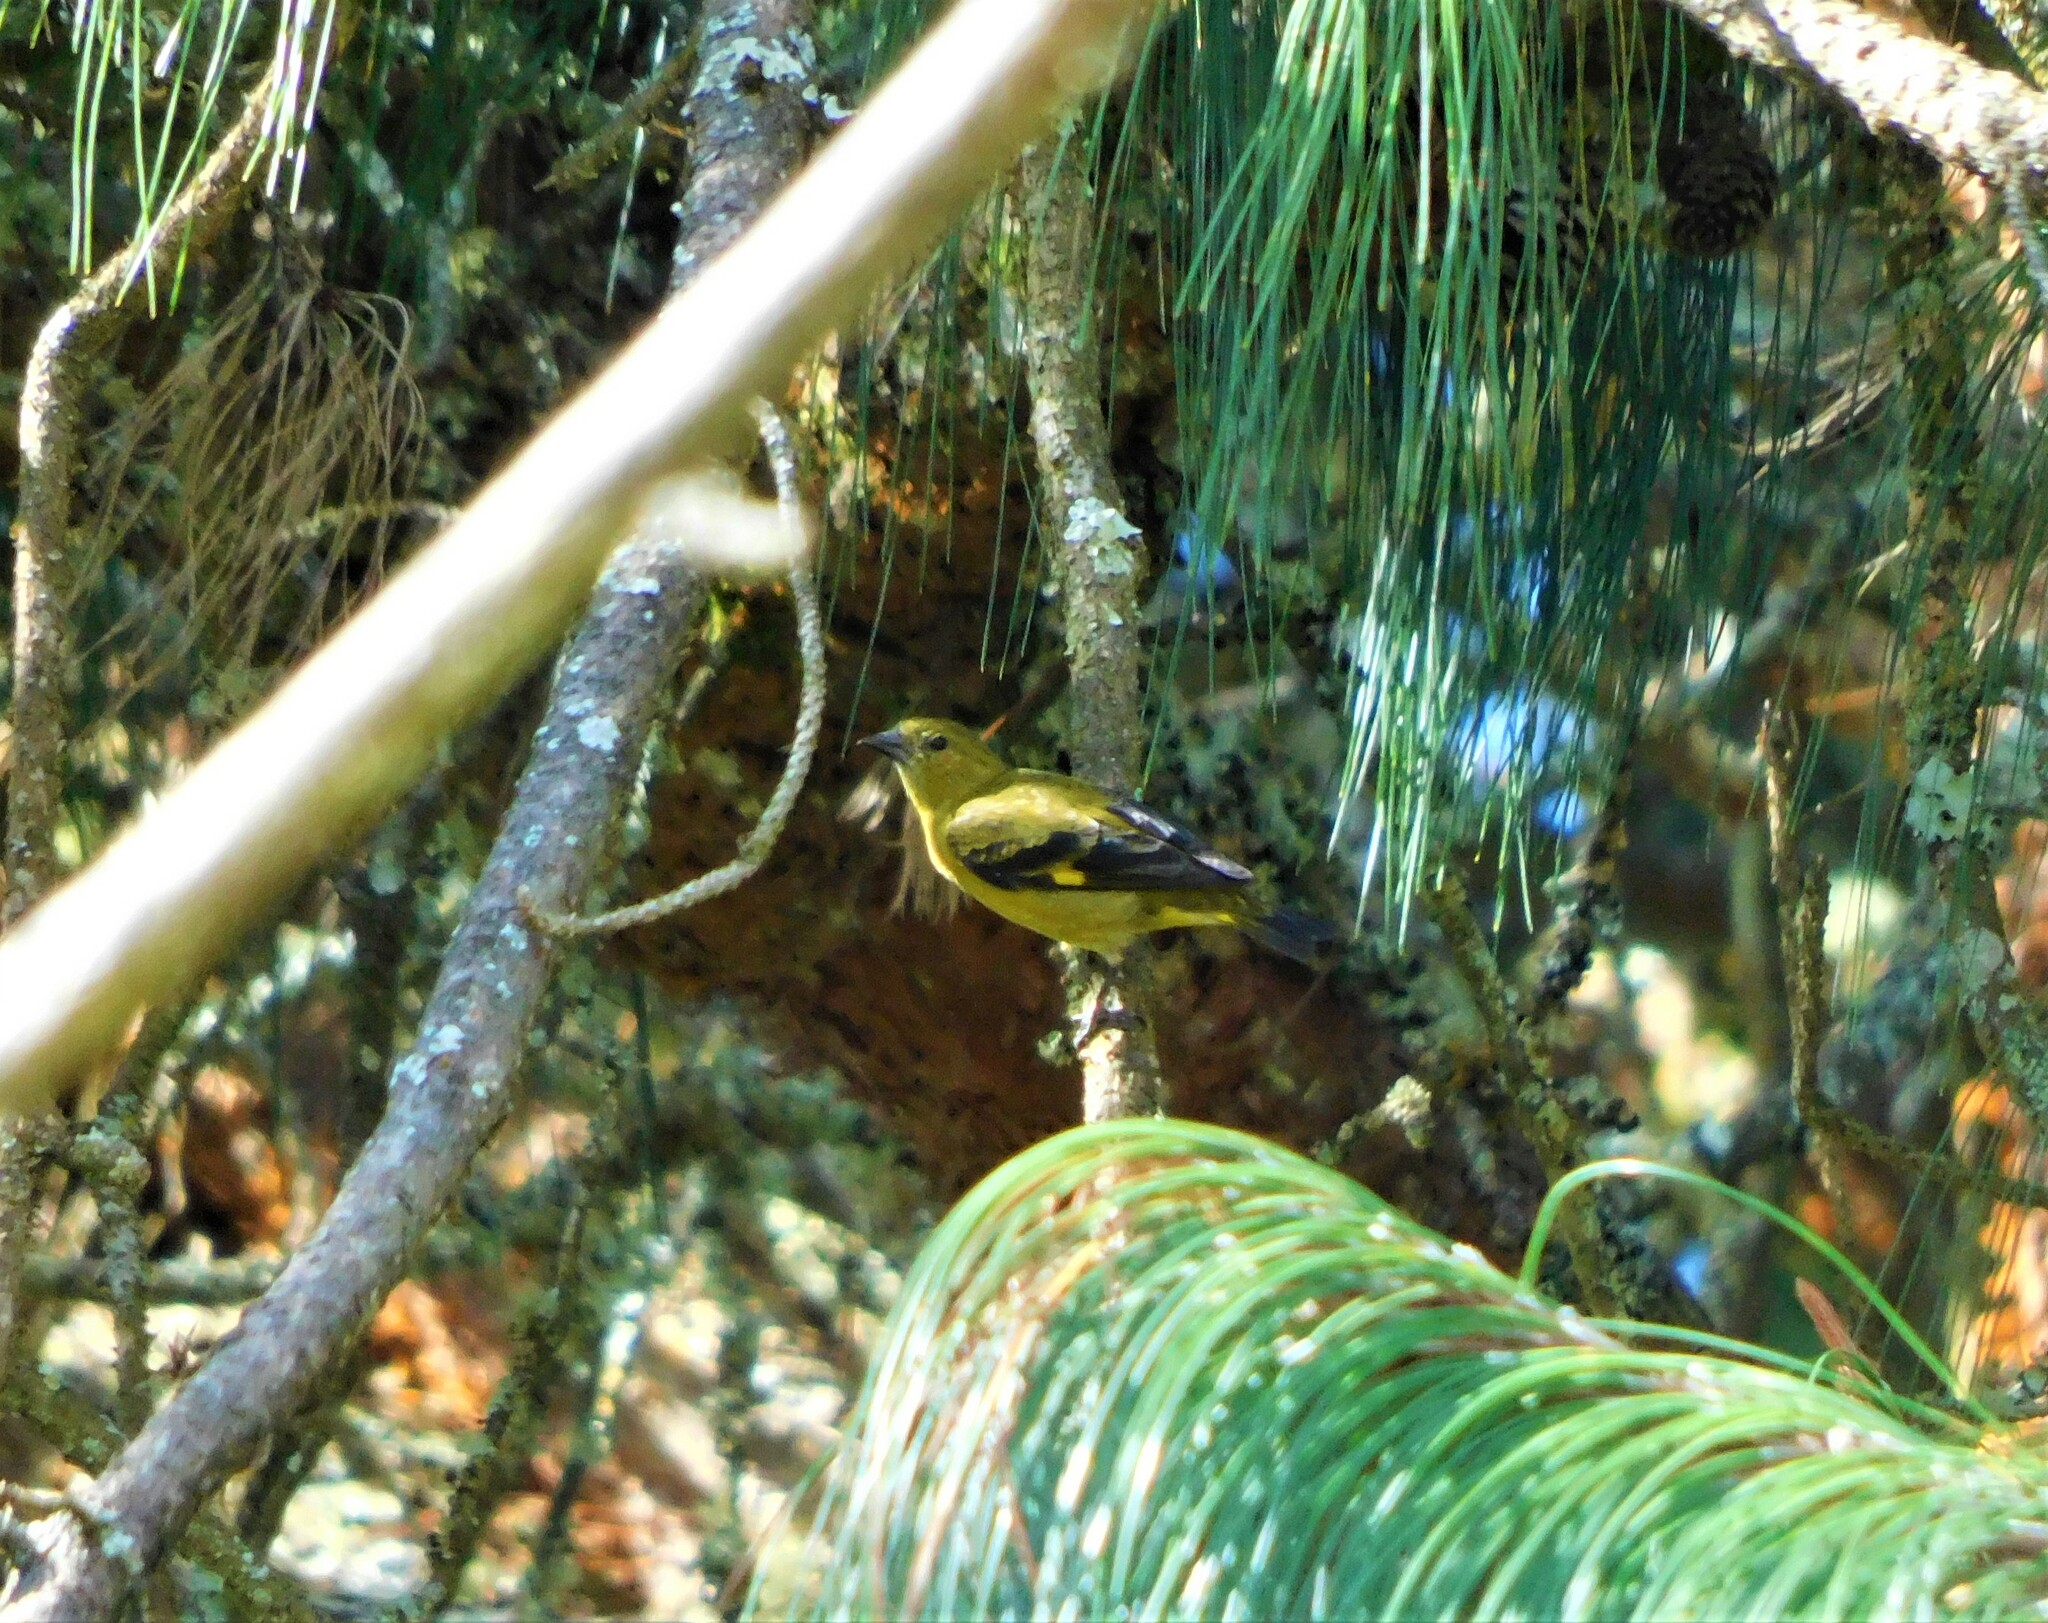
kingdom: Animalia
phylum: Chordata
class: Aves
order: Passeriformes
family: Fringillidae
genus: Spinus
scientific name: Spinus xanthogastrus
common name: Yellow-bellied siskin
